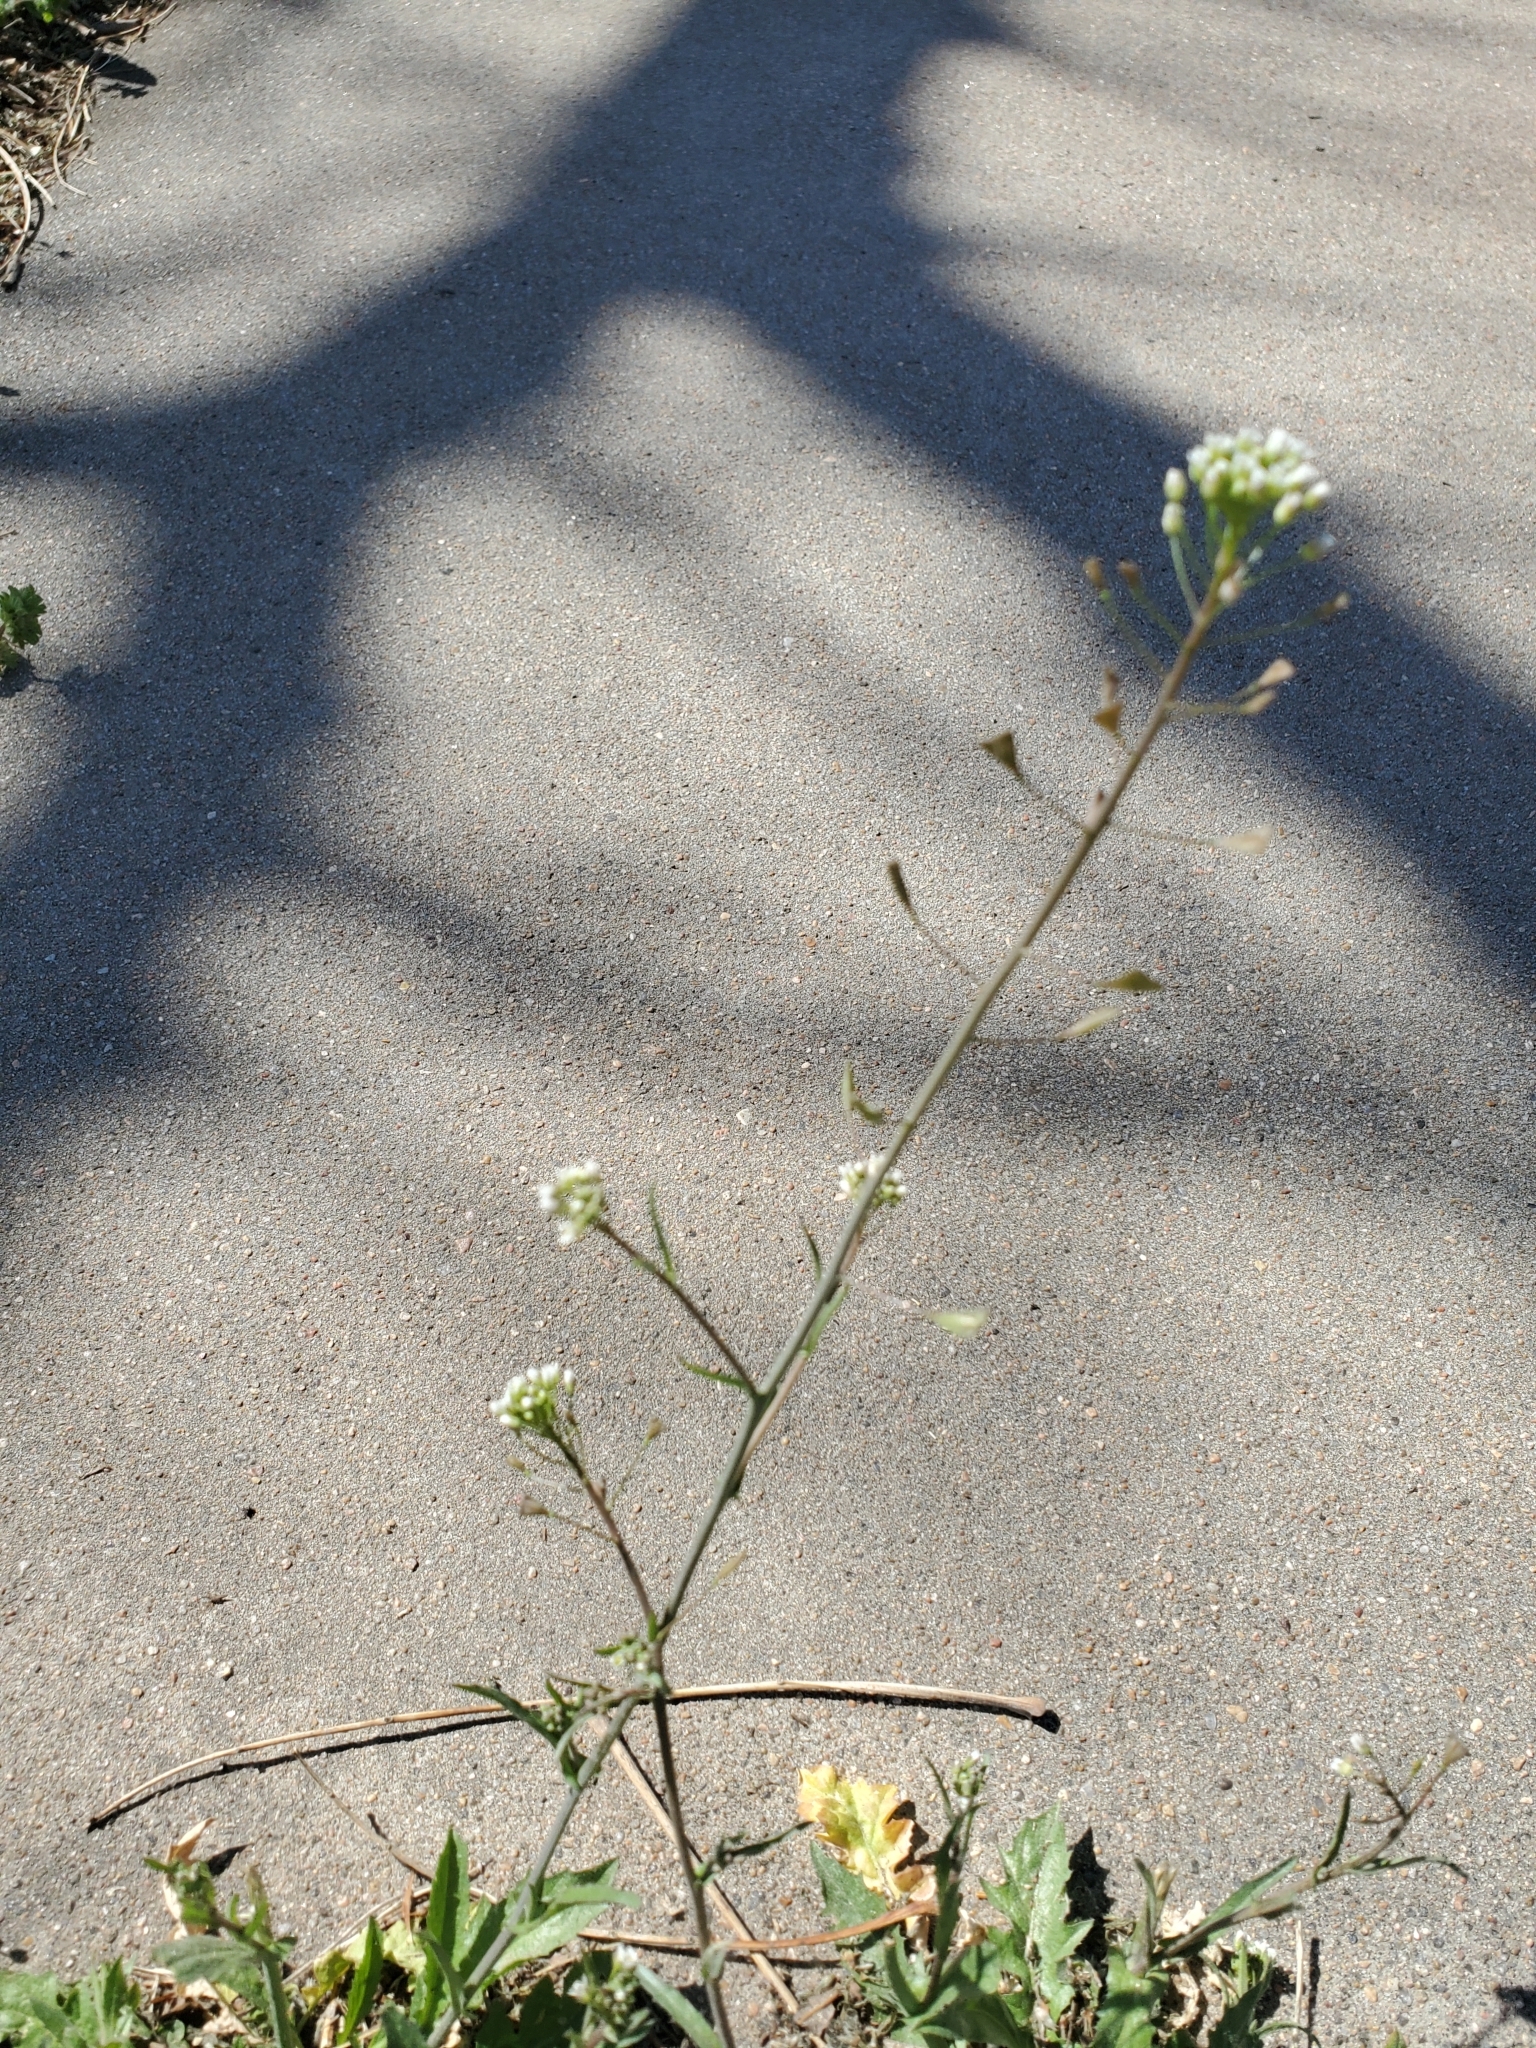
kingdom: Plantae
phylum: Tracheophyta
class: Magnoliopsida
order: Brassicales
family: Brassicaceae
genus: Capsella
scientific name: Capsella bursa-pastoris
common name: Shepherd's purse
